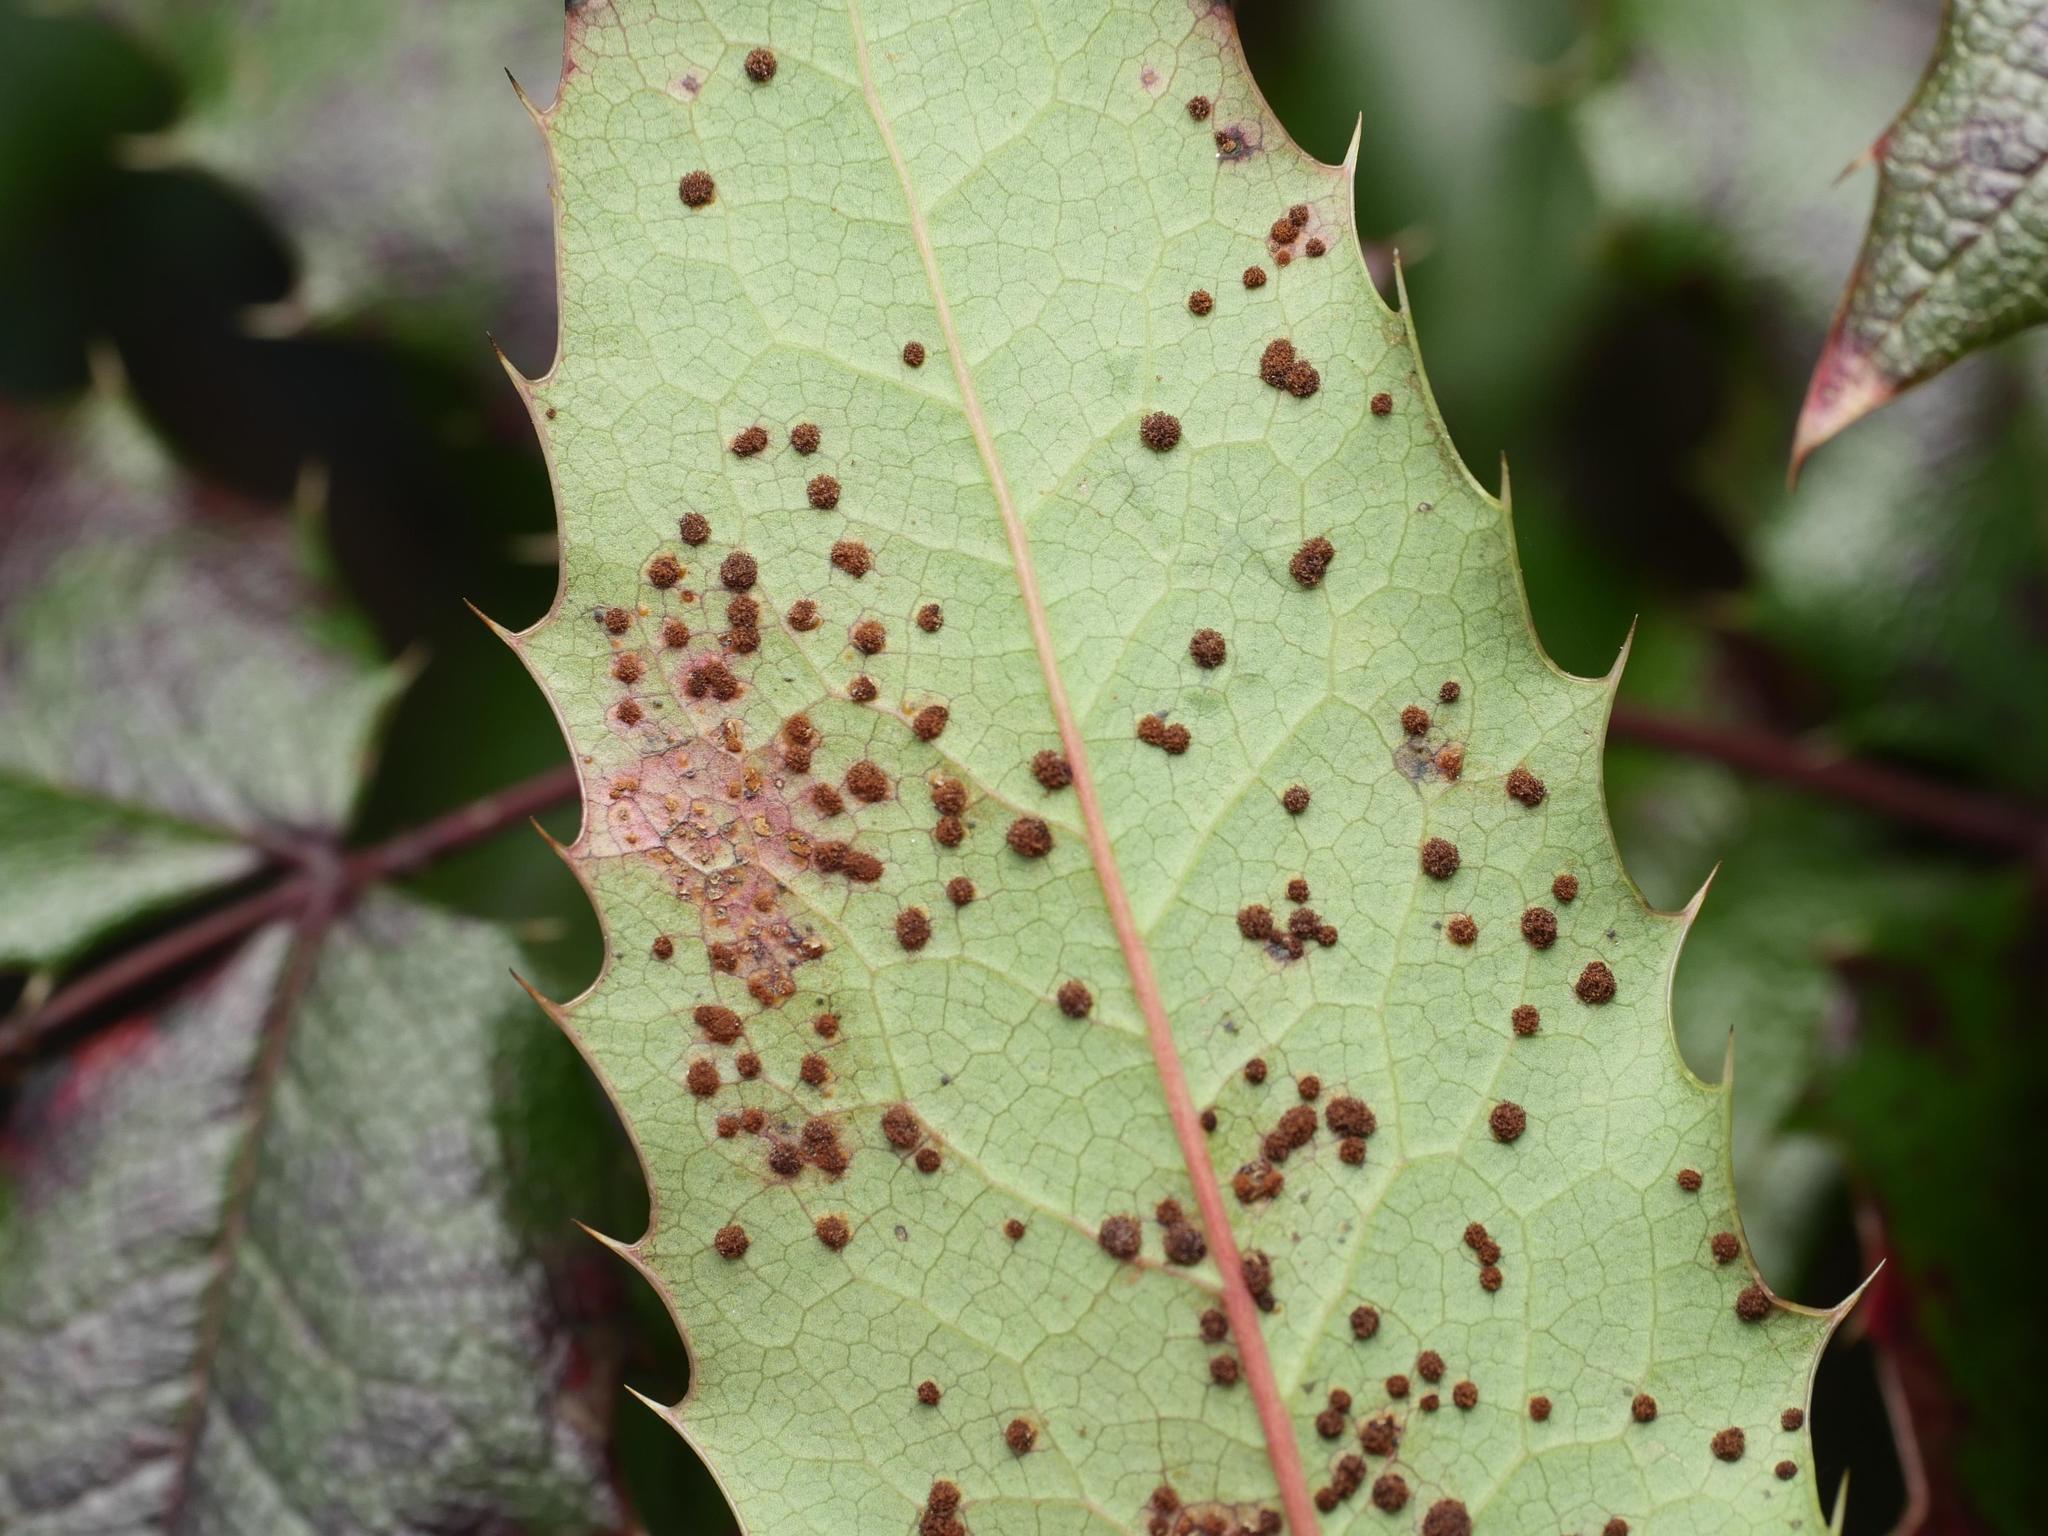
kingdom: Fungi
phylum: Basidiomycota
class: Pucciniomycetes
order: Pucciniales
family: Pucciniaceae
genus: Cumminsiella
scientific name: Cumminsiella mirabilissima
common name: Mahonia rust
